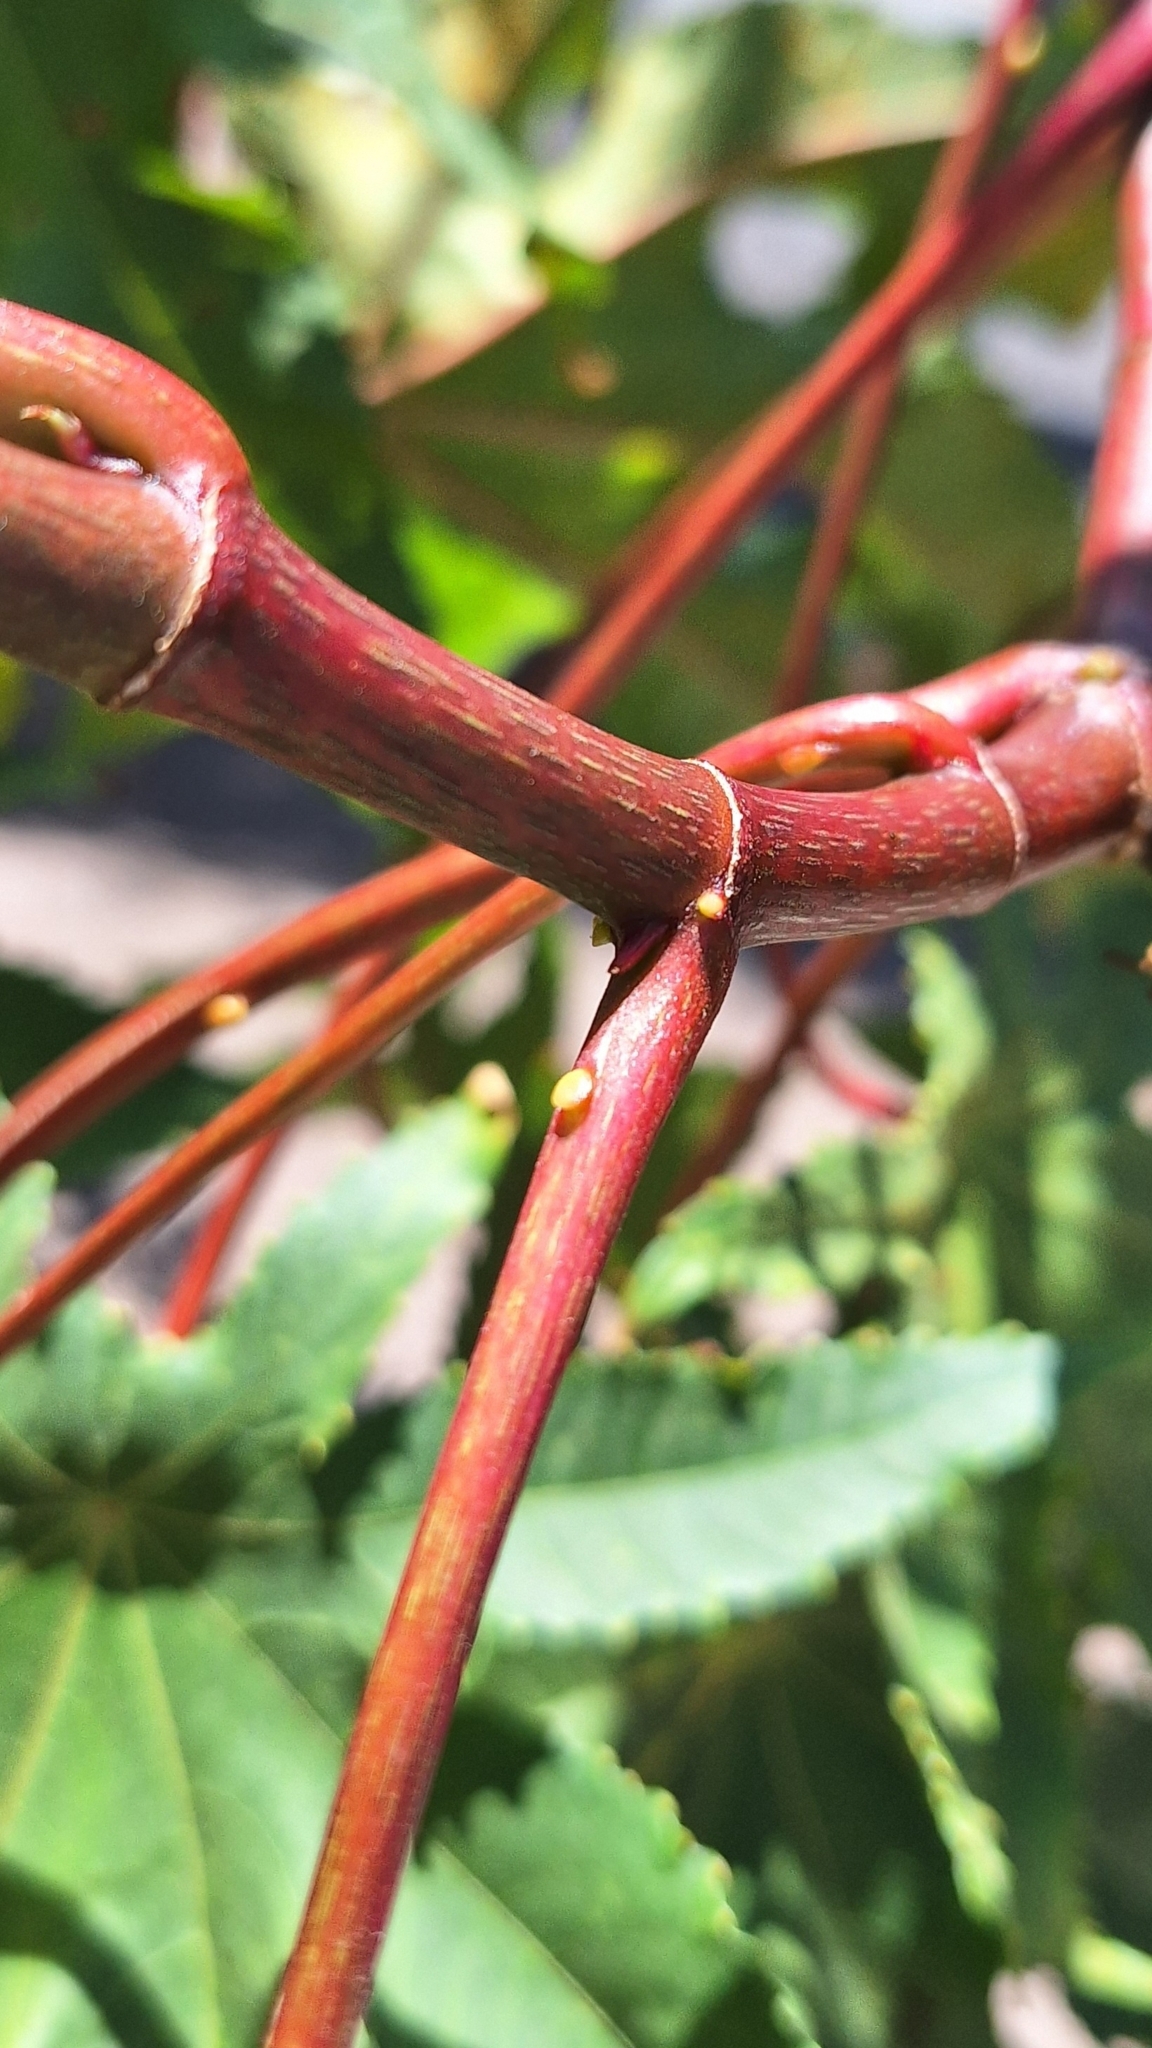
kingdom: Plantae
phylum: Tracheophyta
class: Magnoliopsida
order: Malpighiales
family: Euphorbiaceae
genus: Ricinus
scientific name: Ricinus communis
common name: Castor-oil-plant
